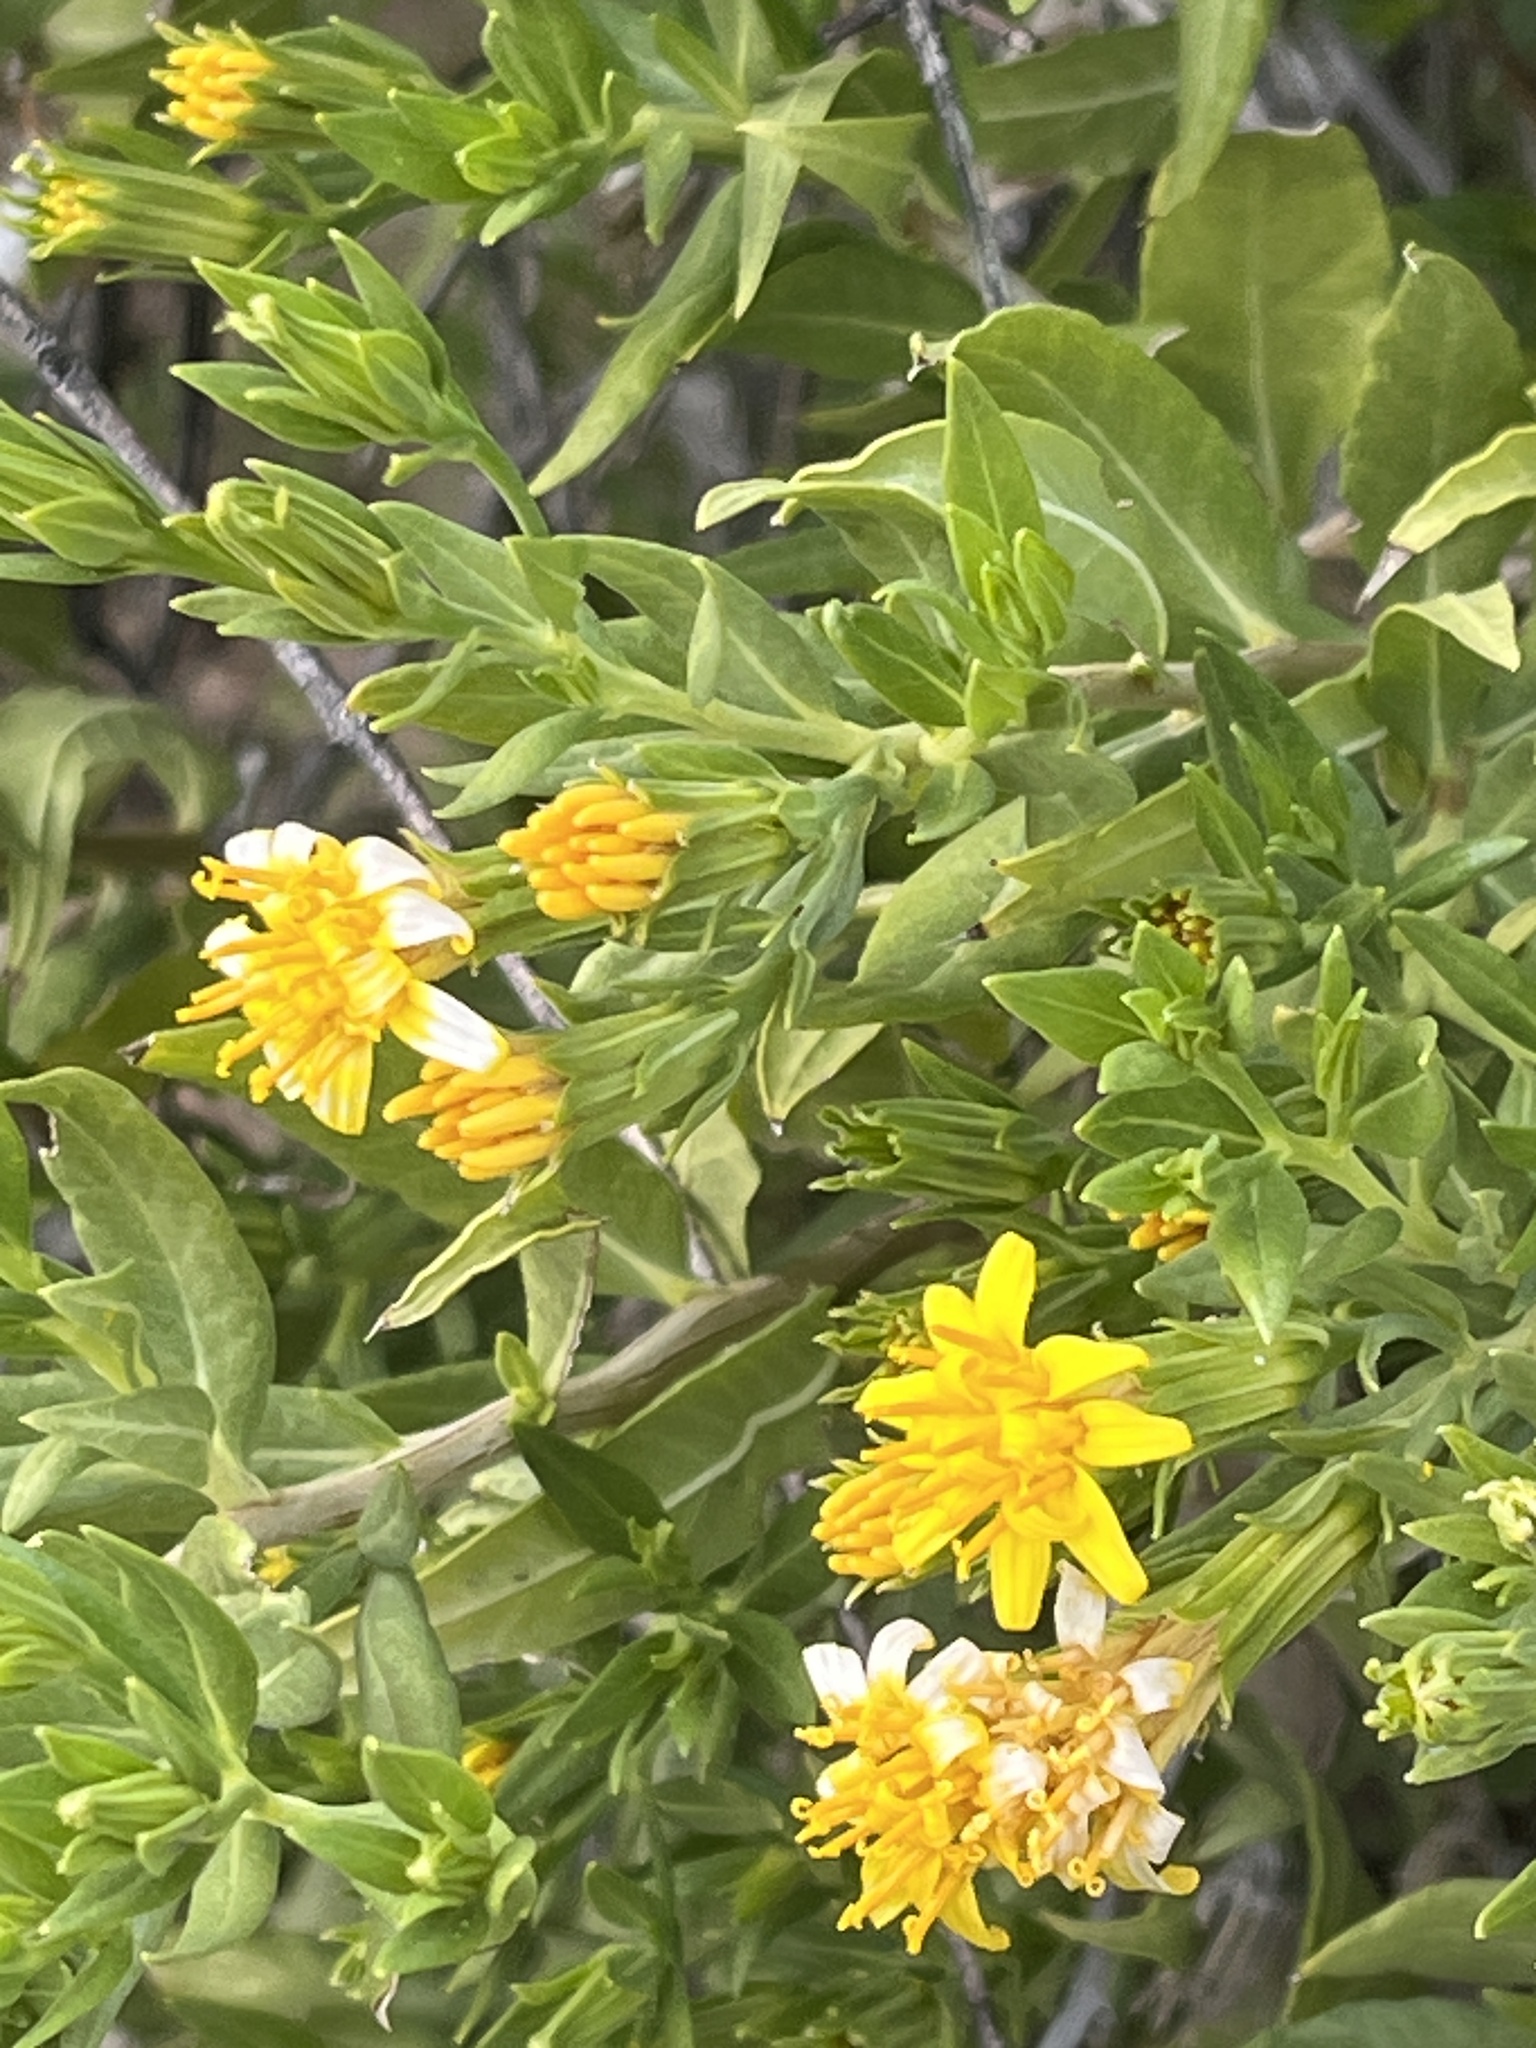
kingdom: Plantae
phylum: Tracheophyta
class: Magnoliopsida
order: Asterales
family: Asteraceae
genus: Trixis
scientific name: Trixis californica
